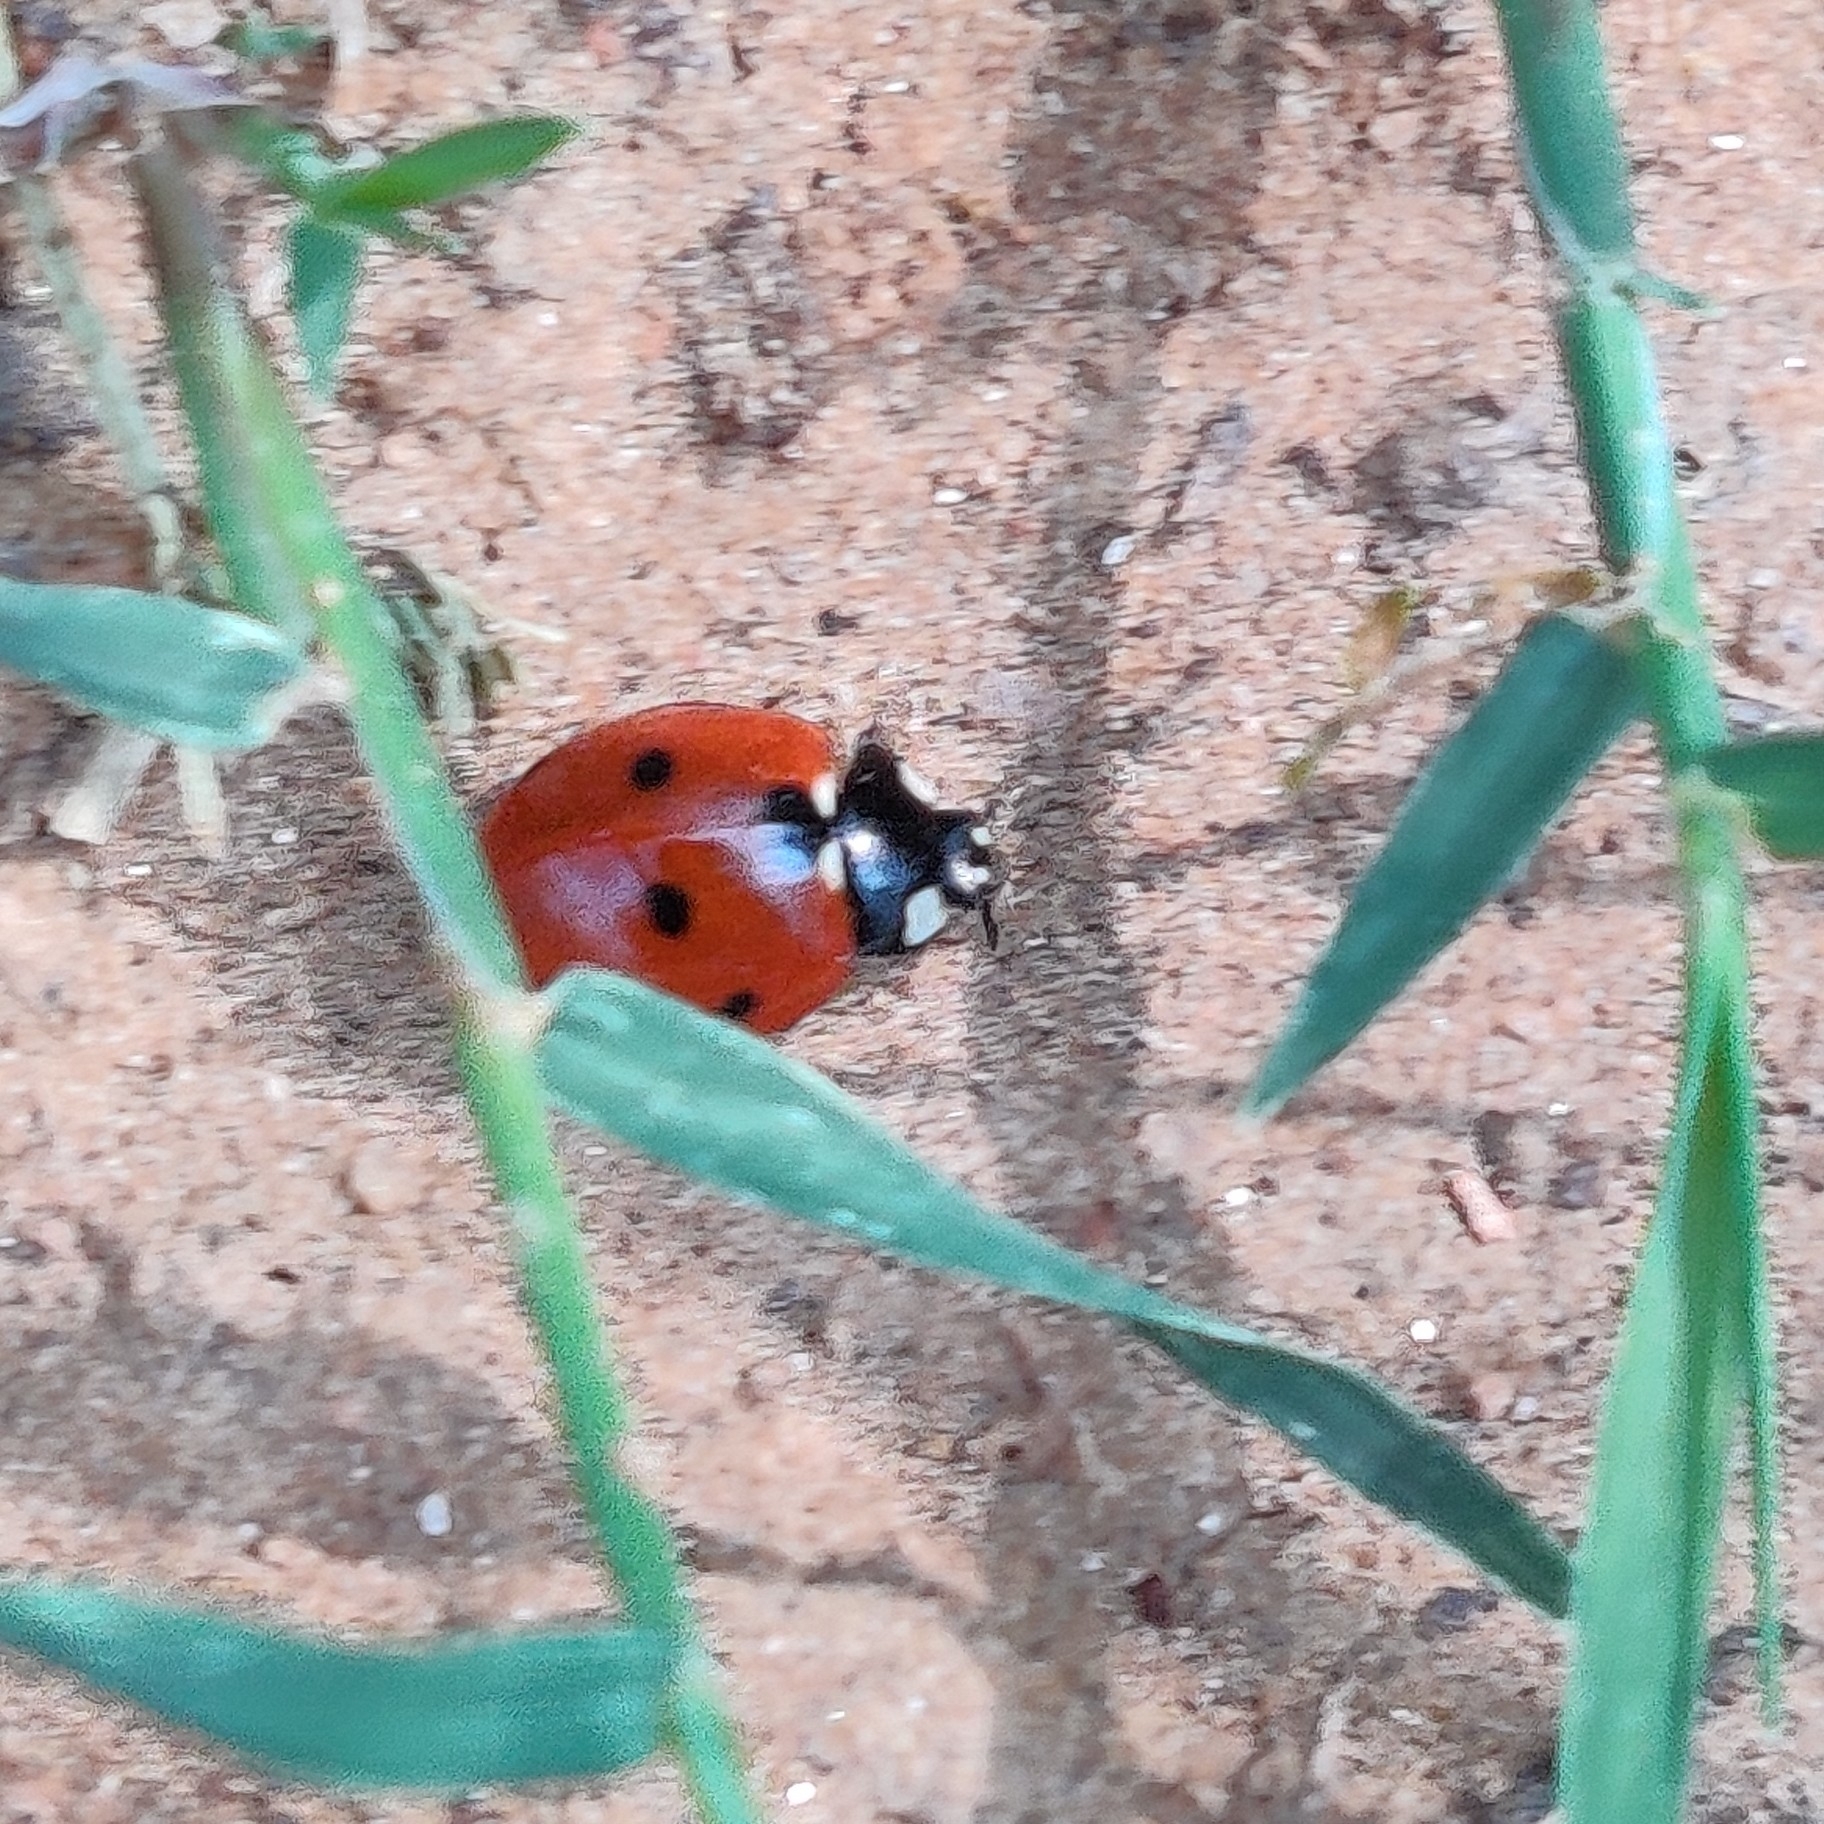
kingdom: Animalia
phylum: Arthropoda
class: Insecta
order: Coleoptera
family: Coccinellidae
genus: Coccinella
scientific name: Coccinella septempunctata
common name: Sevenspotted lady beetle
